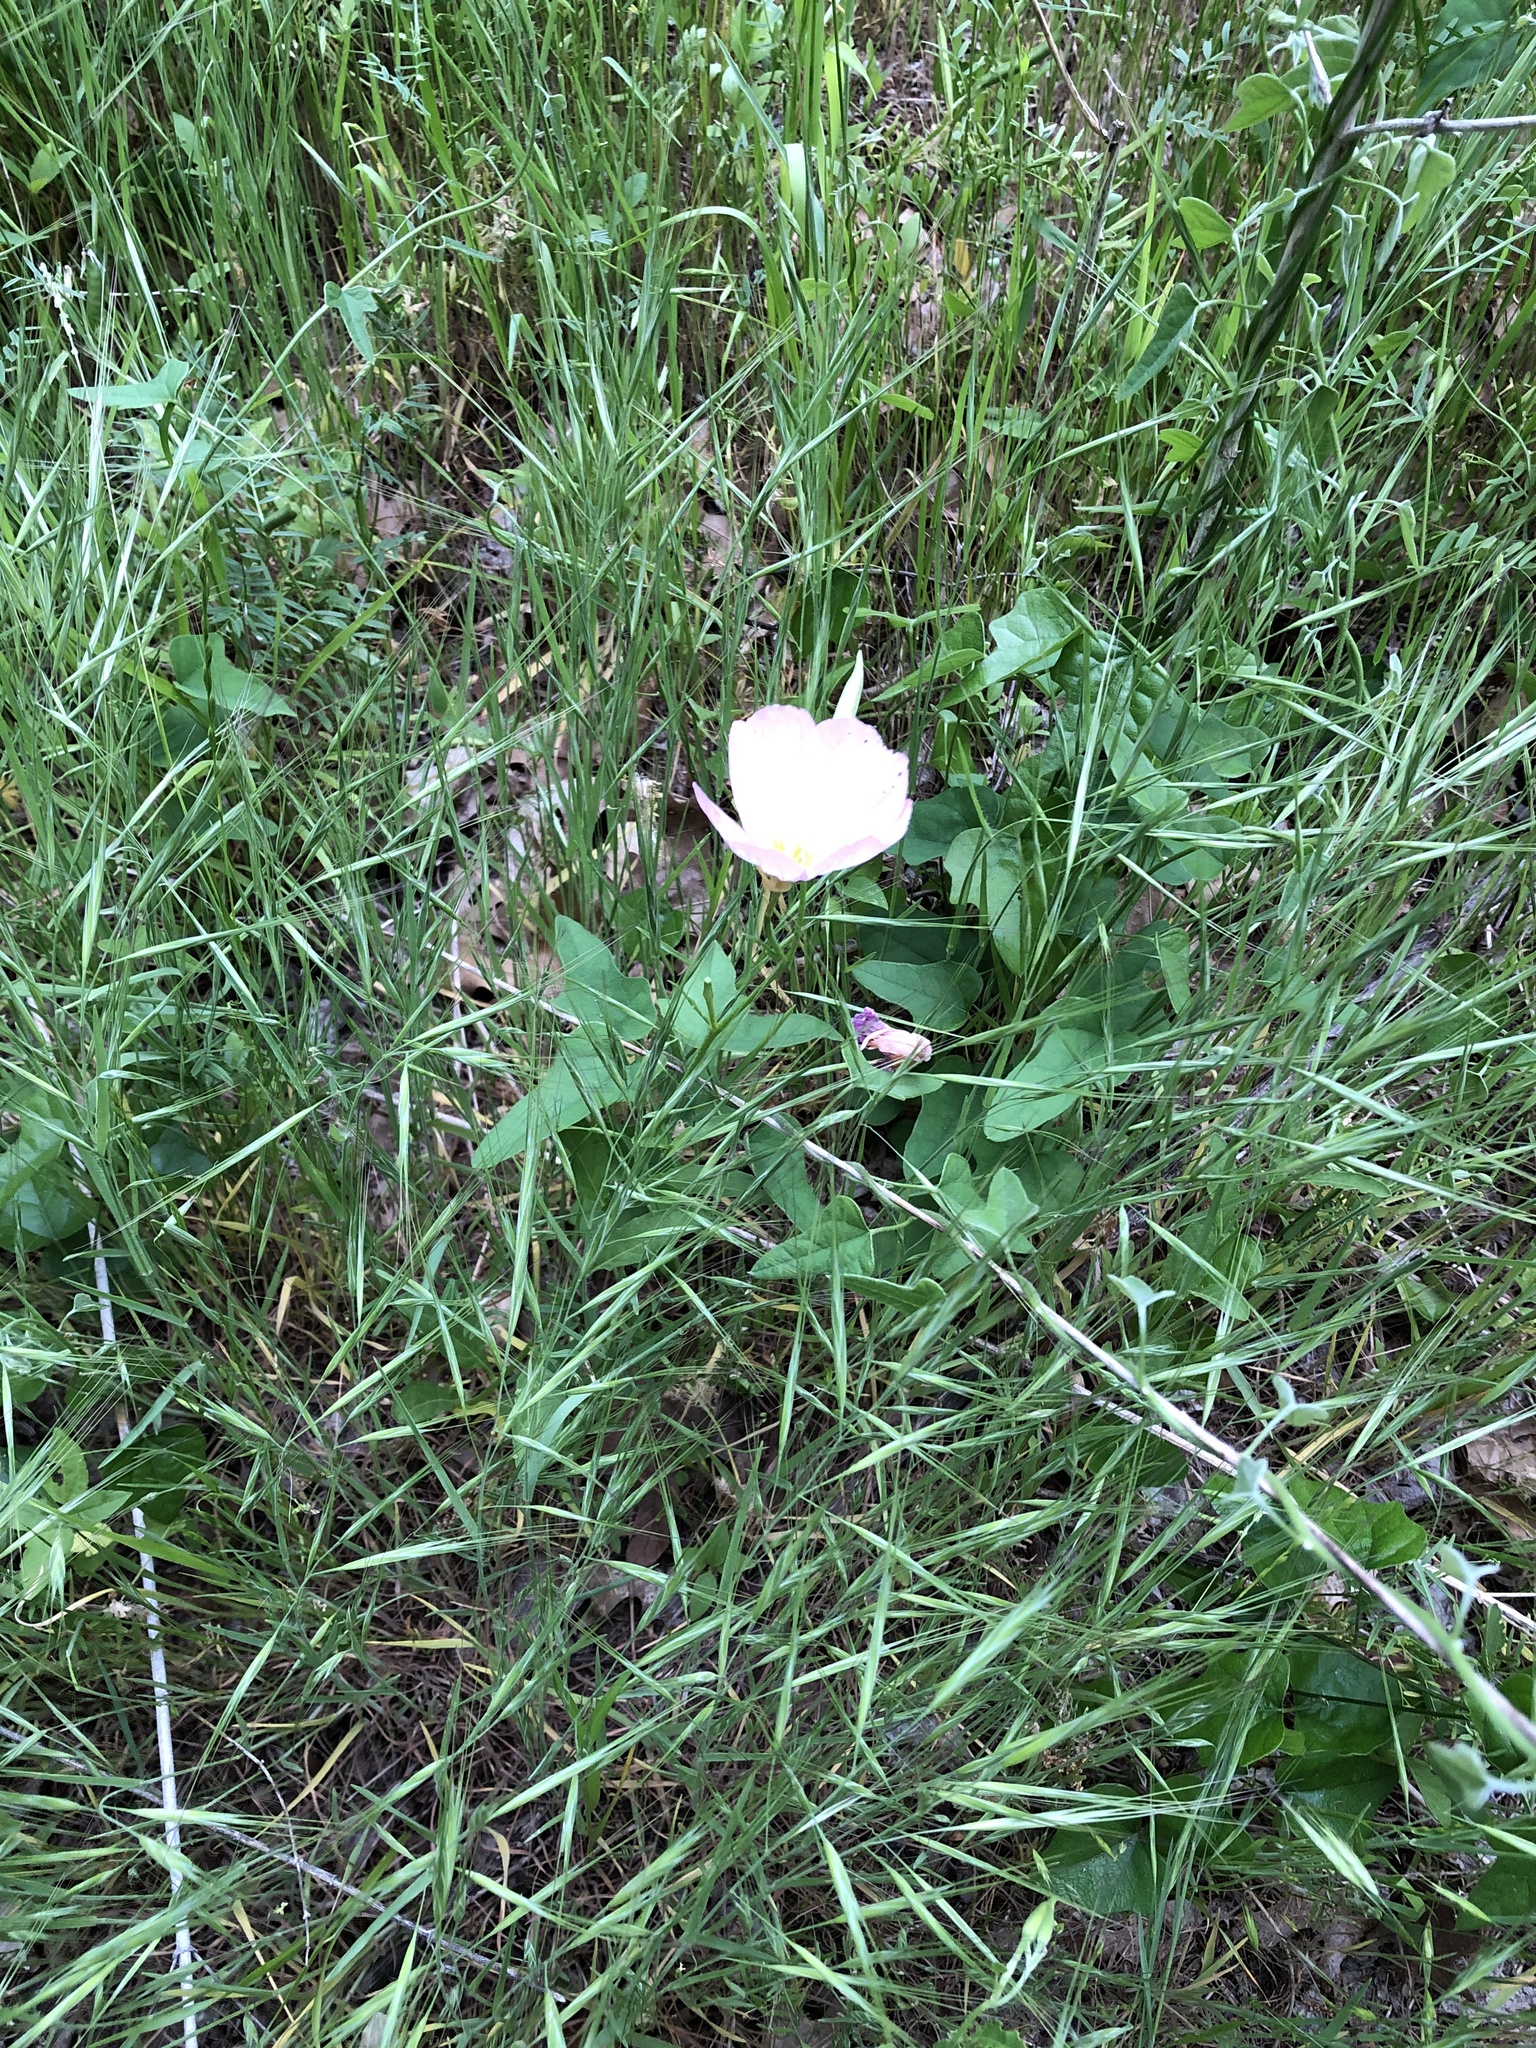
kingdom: Plantae
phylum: Tracheophyta
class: Magnoliopsida
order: Myrtales
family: Onagraceae
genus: Oenothera
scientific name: Oenothera speciosa
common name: White evening-primrose
